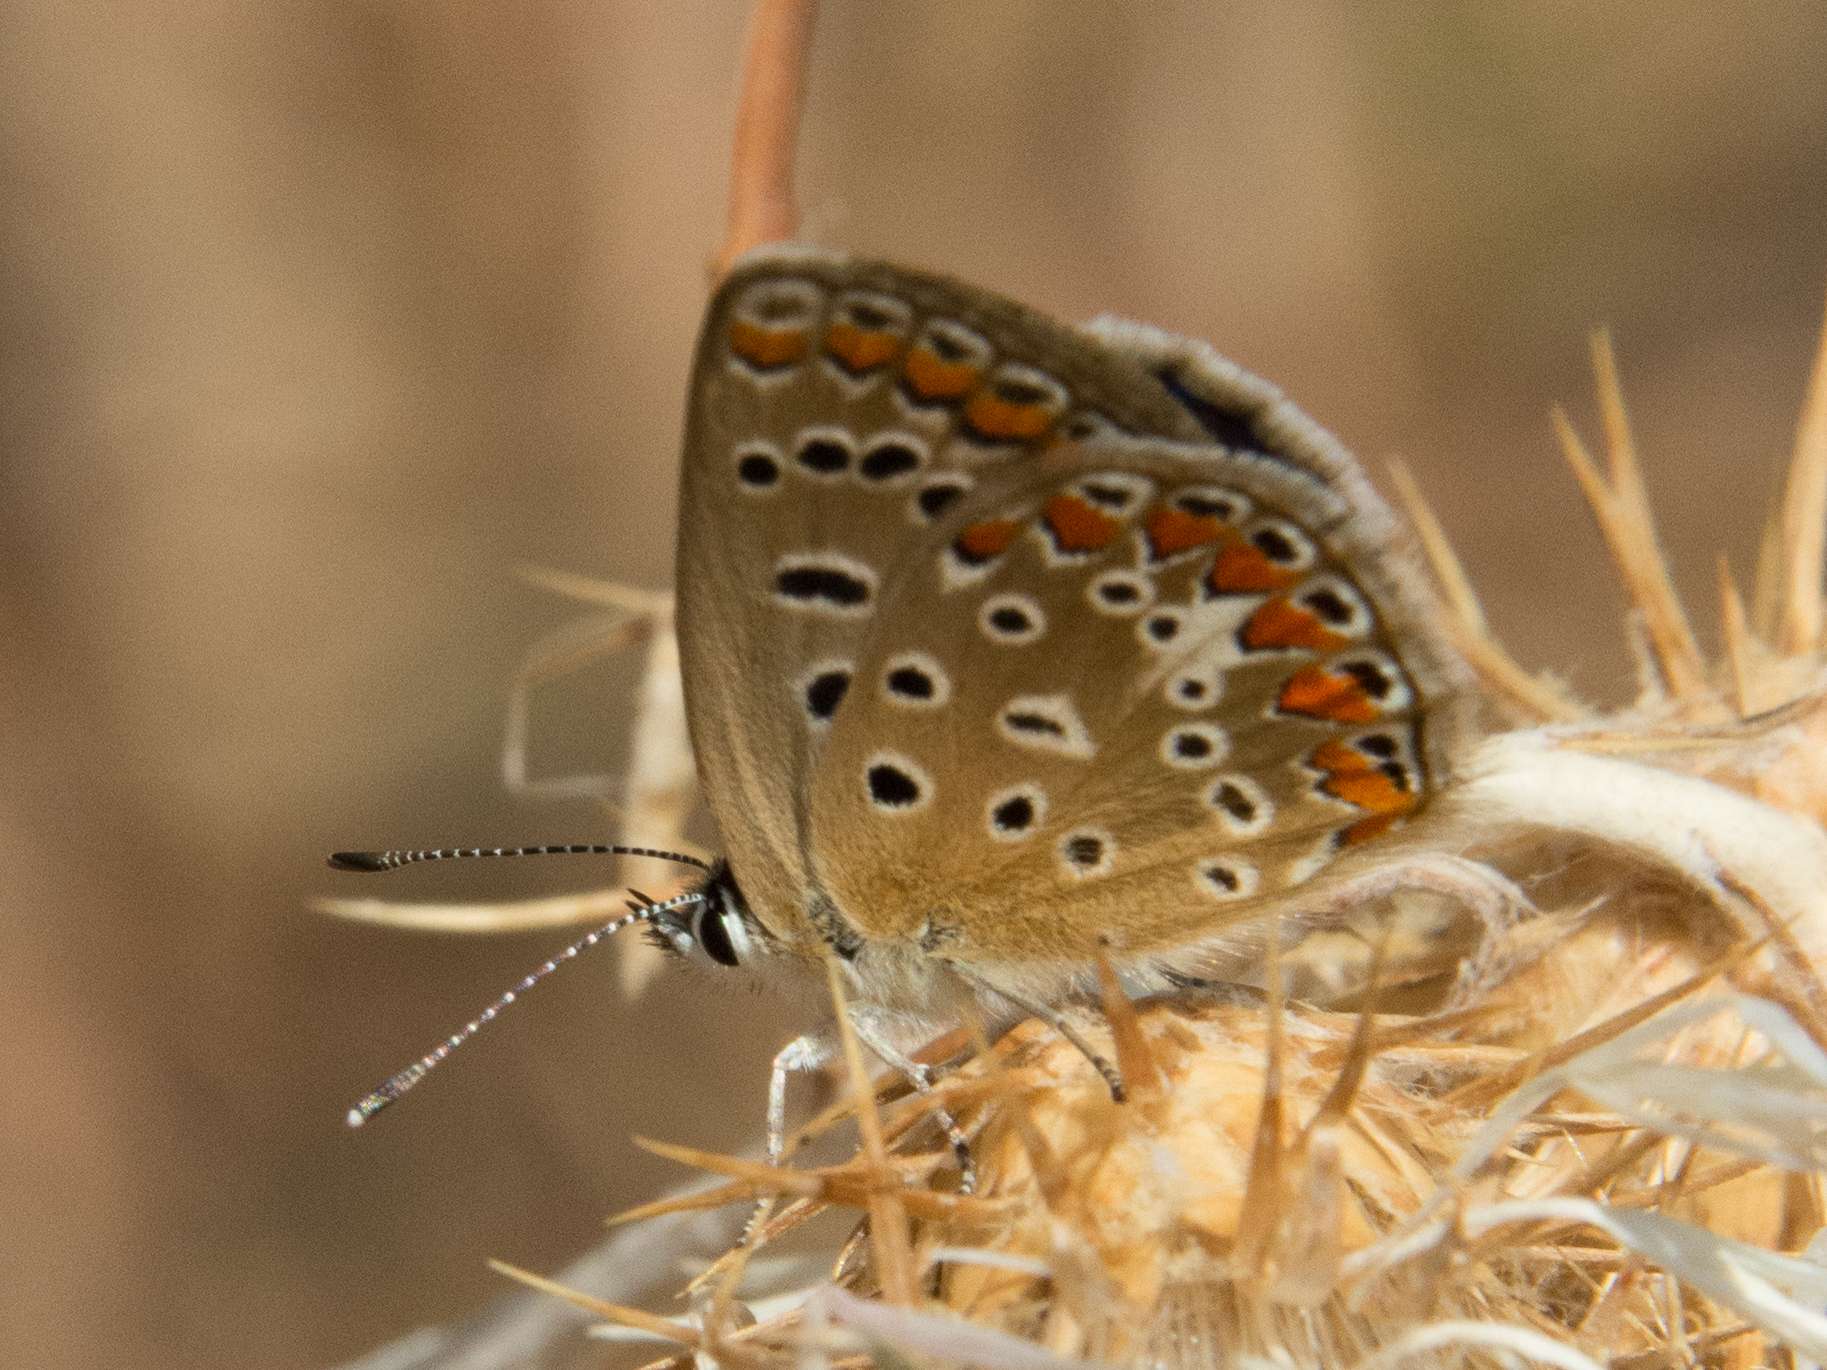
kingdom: Animalia
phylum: Arthropoda
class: Insecta
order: Lepidoptera
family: Lycaenidae
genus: Polyommatus
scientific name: Polyommatus celina
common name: Austaut's blue
